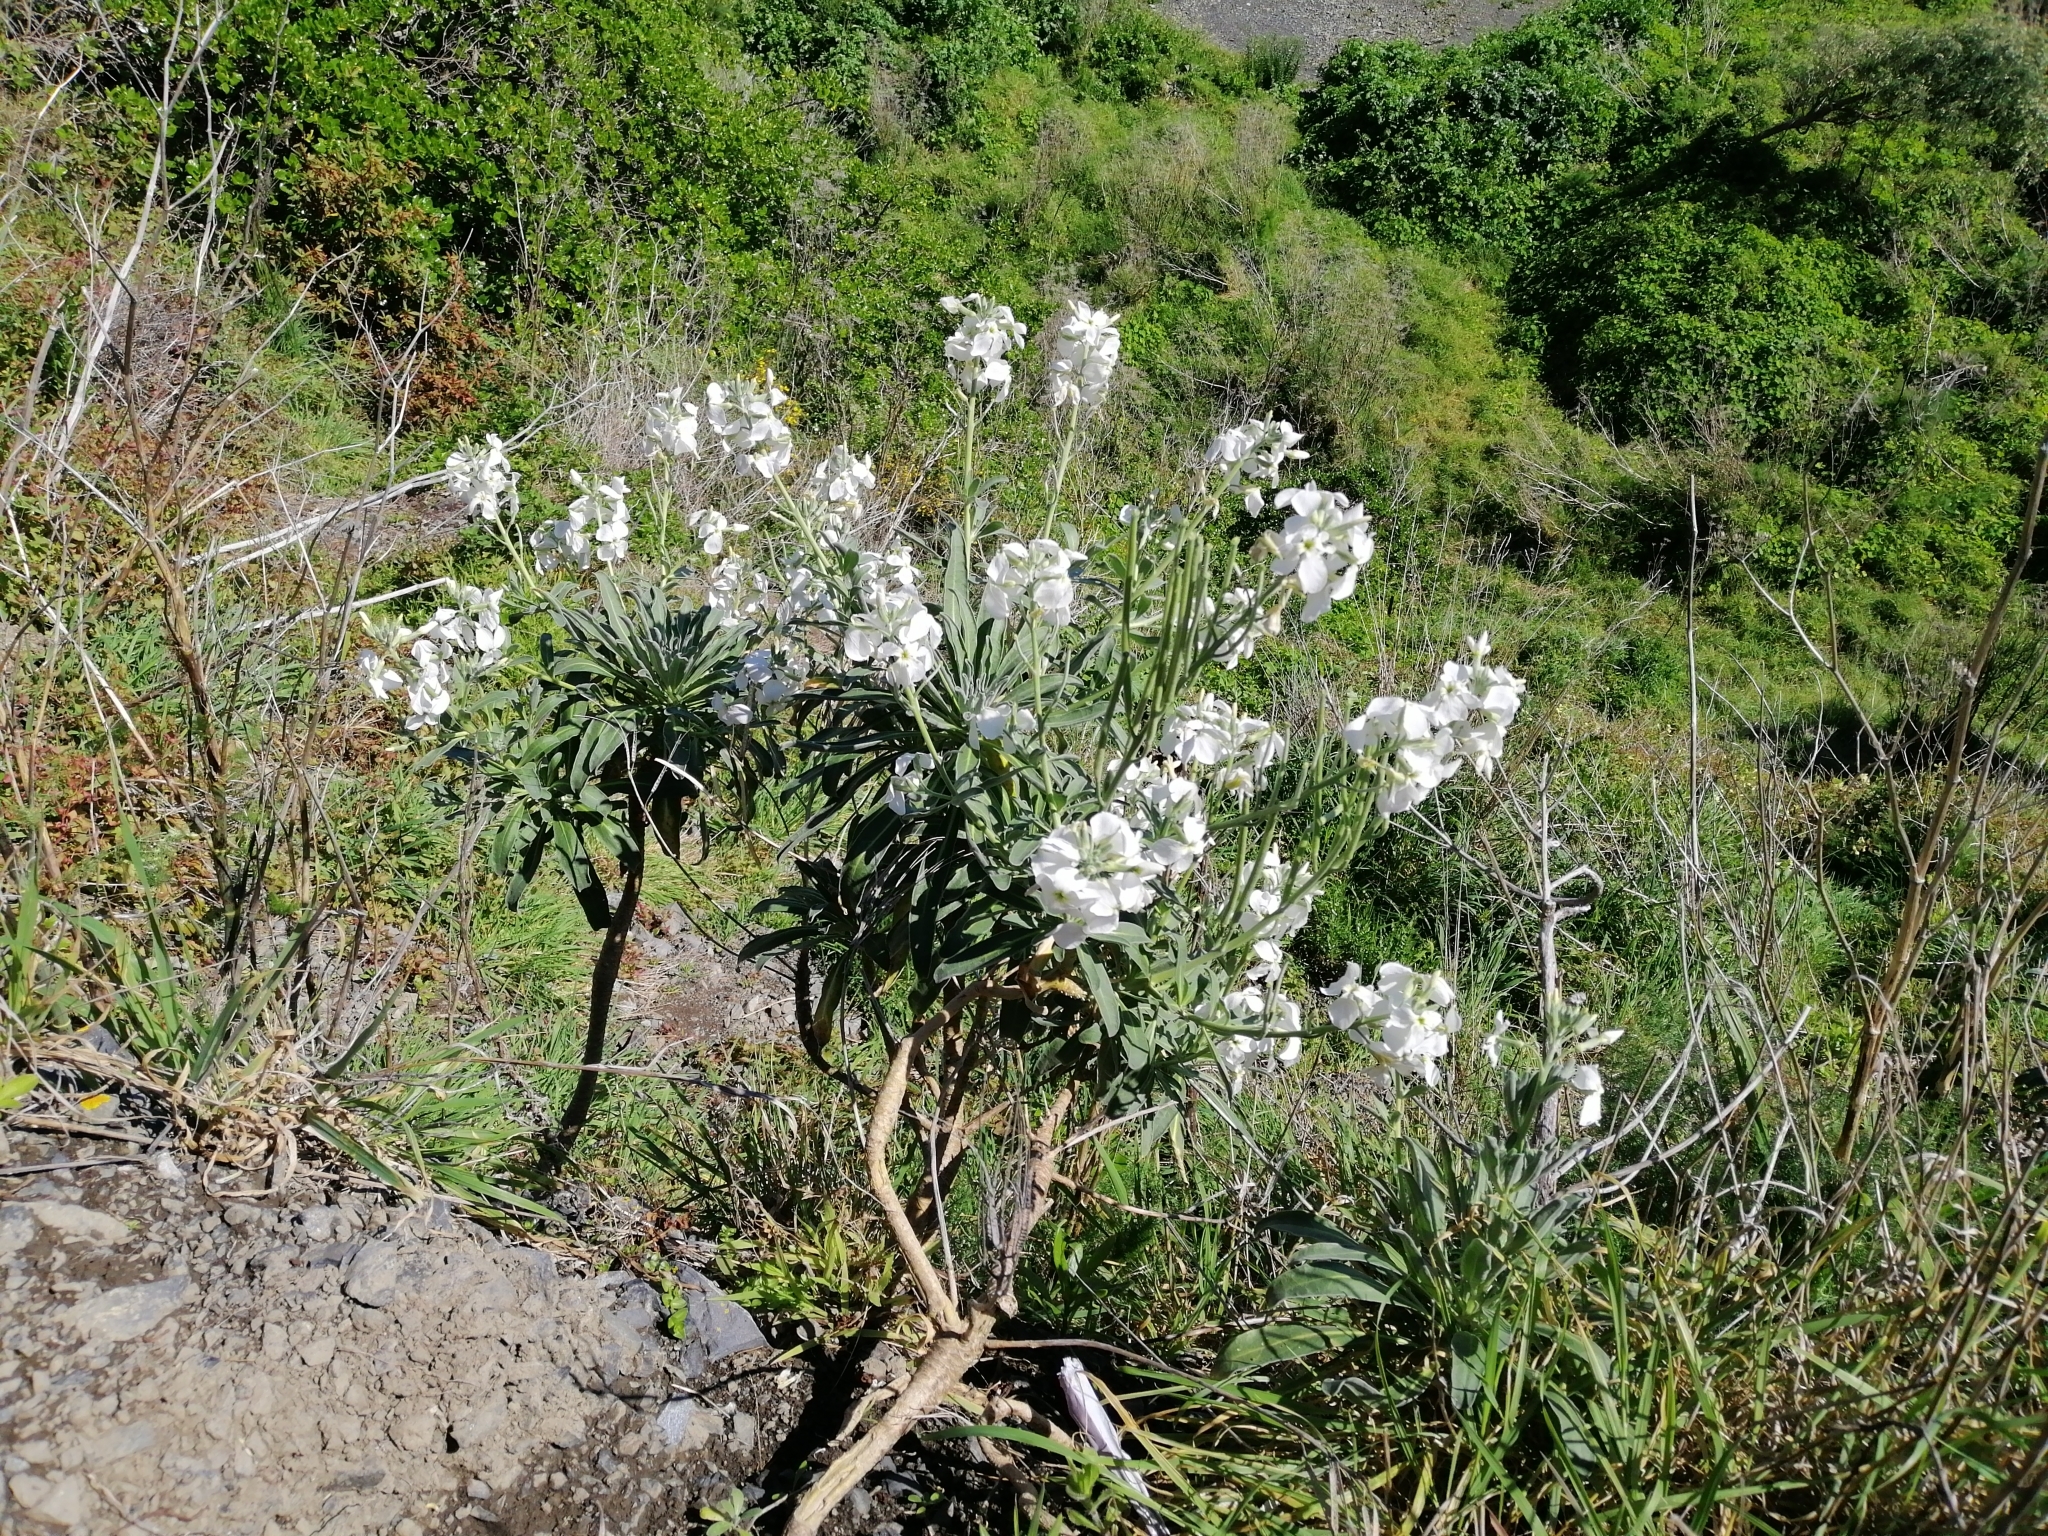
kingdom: Plantae
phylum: Tracheophyta
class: Magnoliopsida
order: Brassicales
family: Brassicaceae
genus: Matthiola
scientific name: Matthiola incana
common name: Hoary stock
